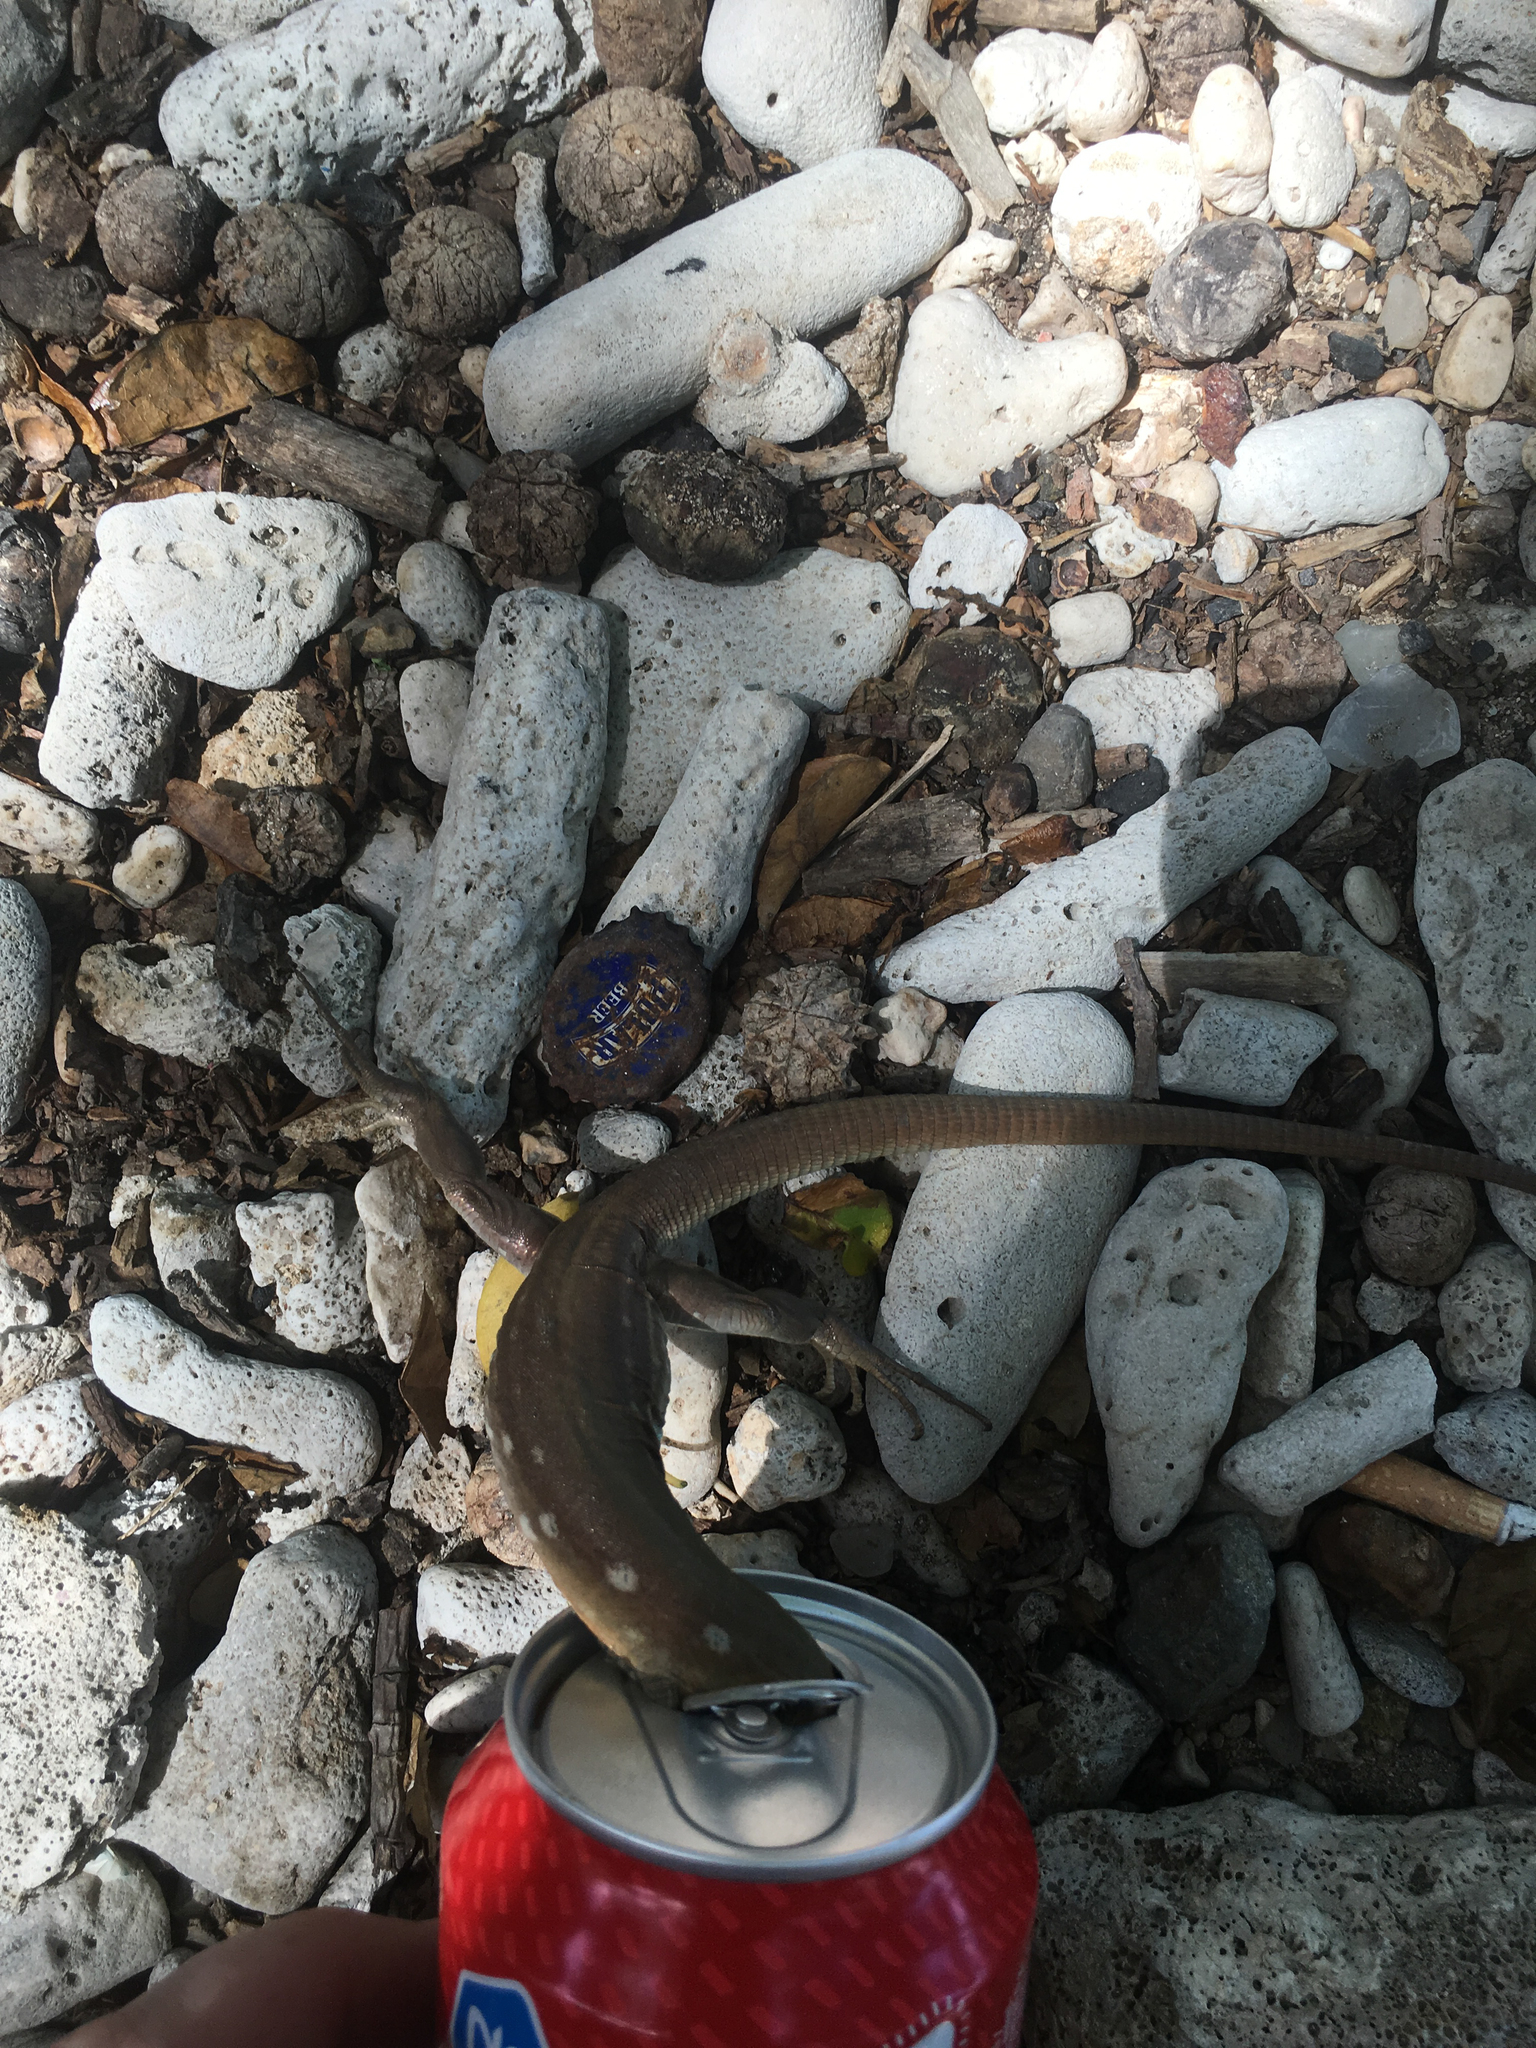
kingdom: Animalia
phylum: Chordata
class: Squamata
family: Teiidae
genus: Cnemidophorus
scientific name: Cnemidophorus murinus
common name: Laurent's whiptail
